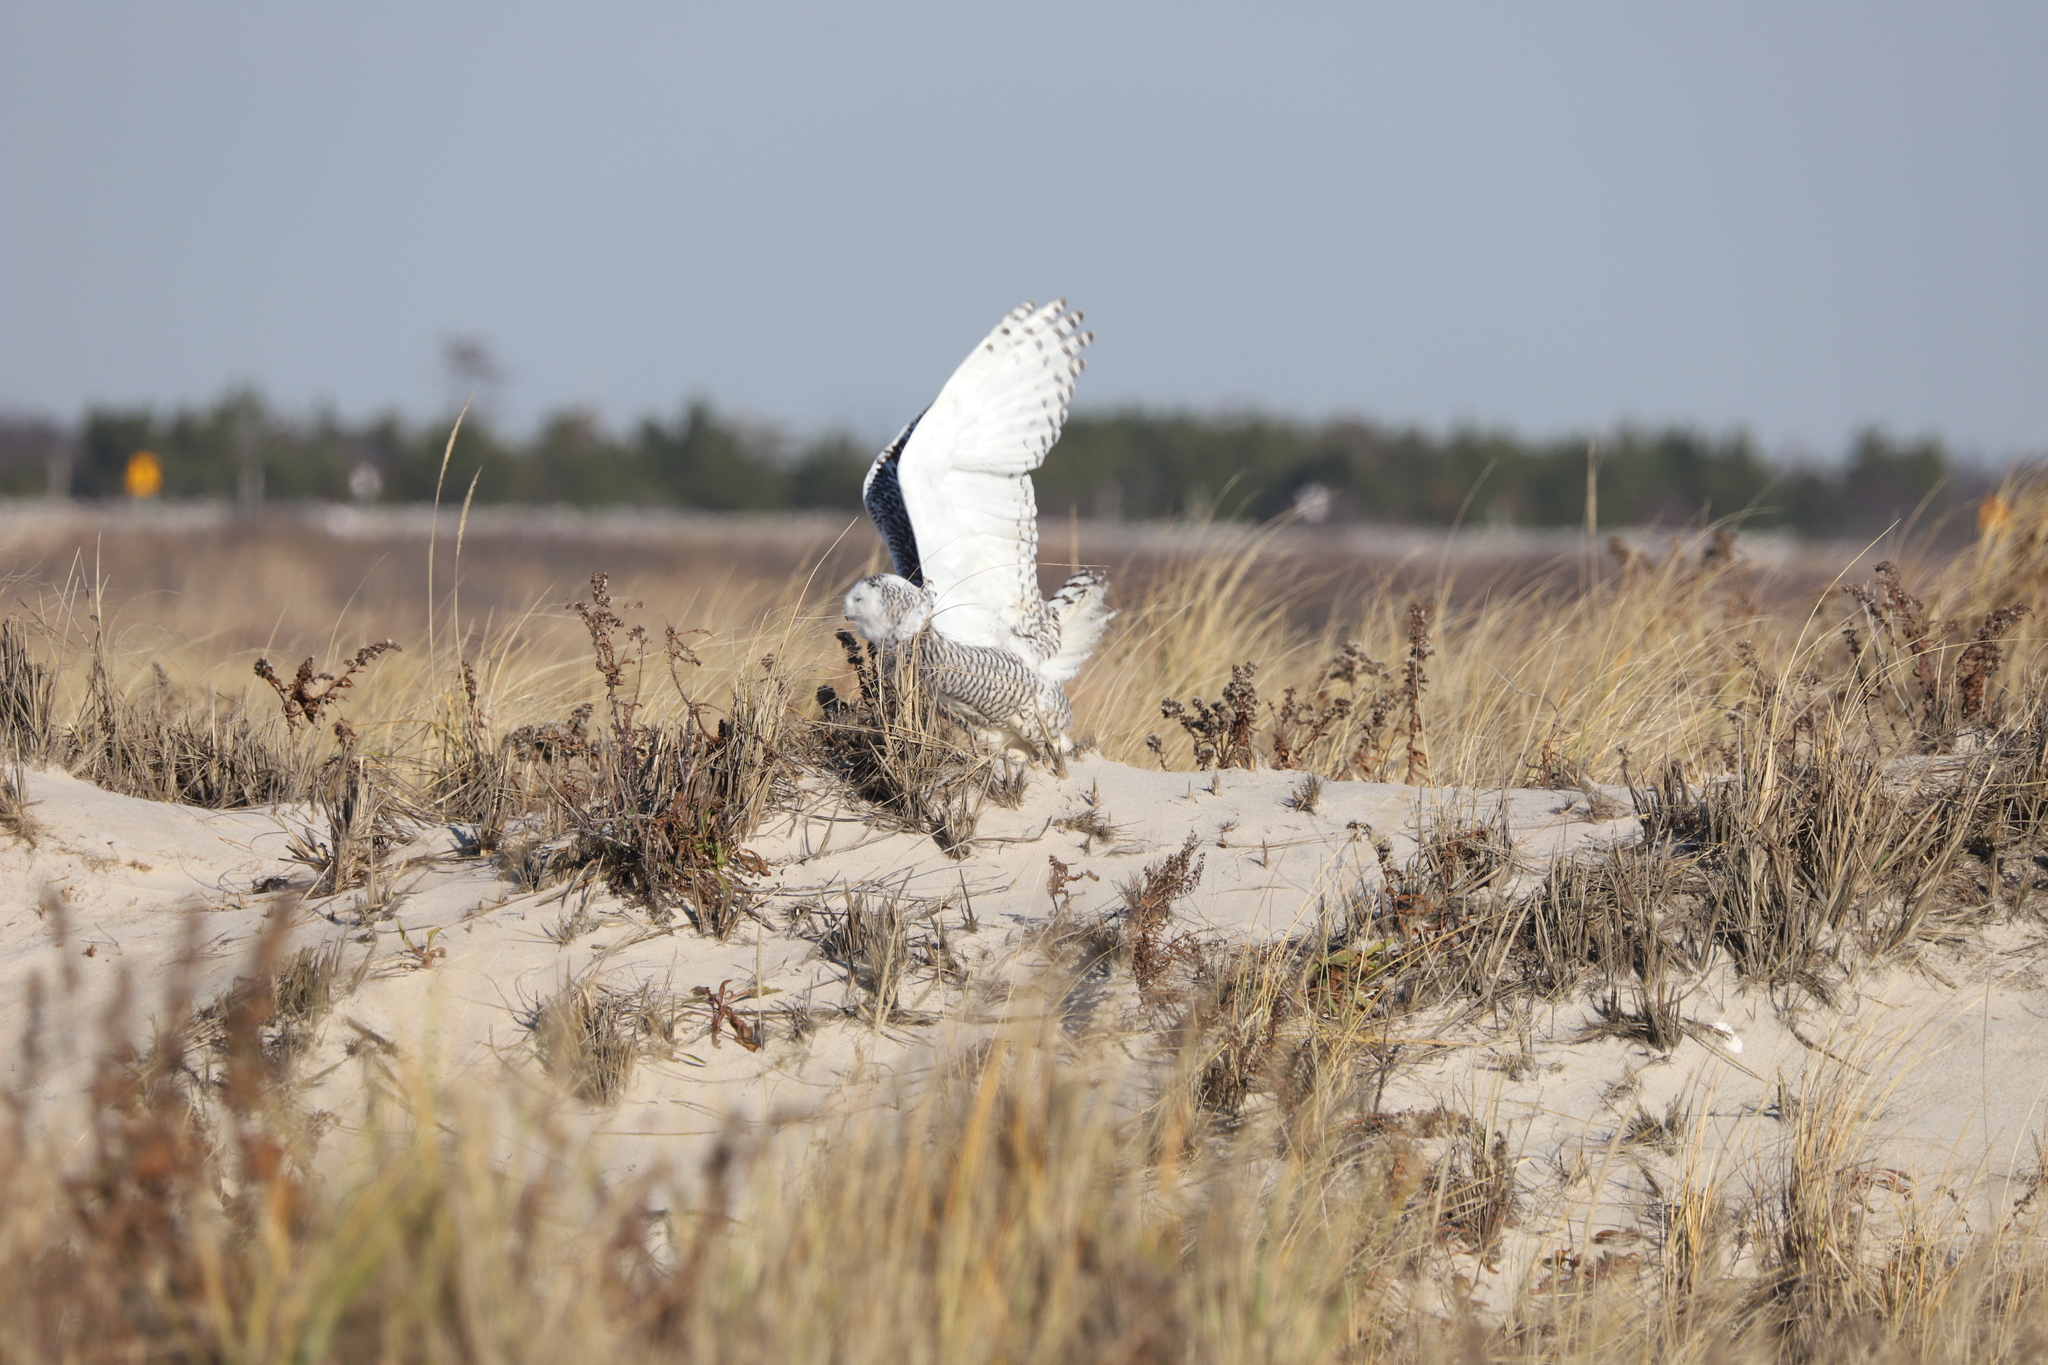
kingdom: Animalia
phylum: Chordata
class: Aves
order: Strigiformes
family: Strigidae
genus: Bubo
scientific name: Bubo scandiacus
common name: Snowy owl
